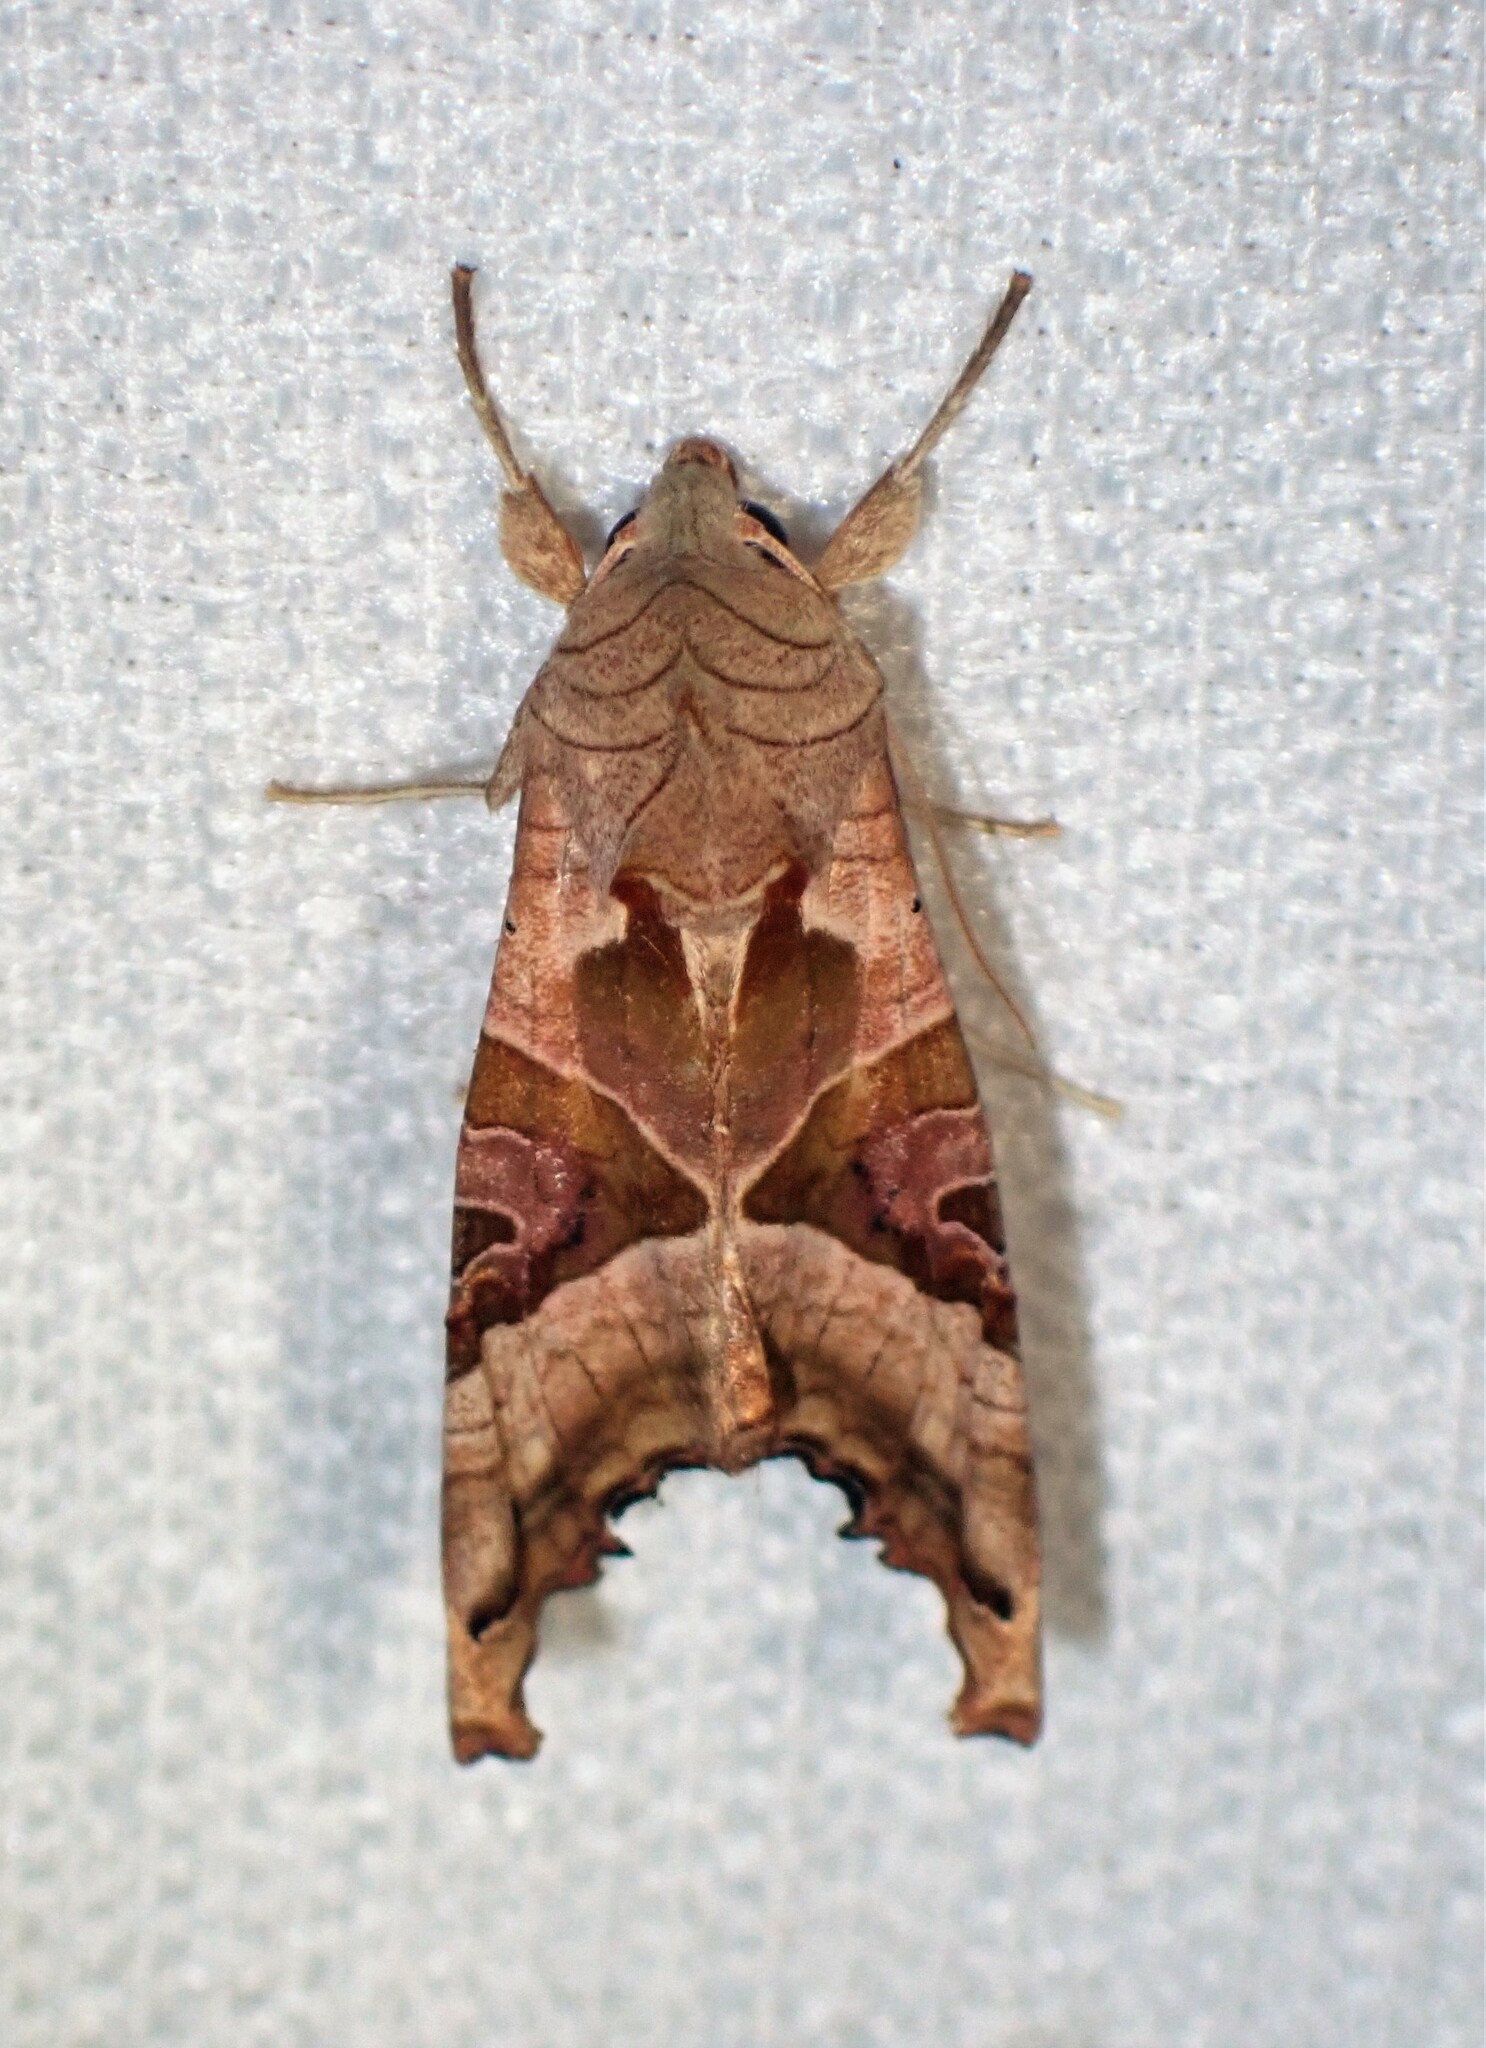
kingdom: Animalia
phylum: Arthropoda
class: Insecta
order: Lepidoptera
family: Noctuidae
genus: Phlogophora
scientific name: Phlogophora meticulosa
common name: Angle shades
